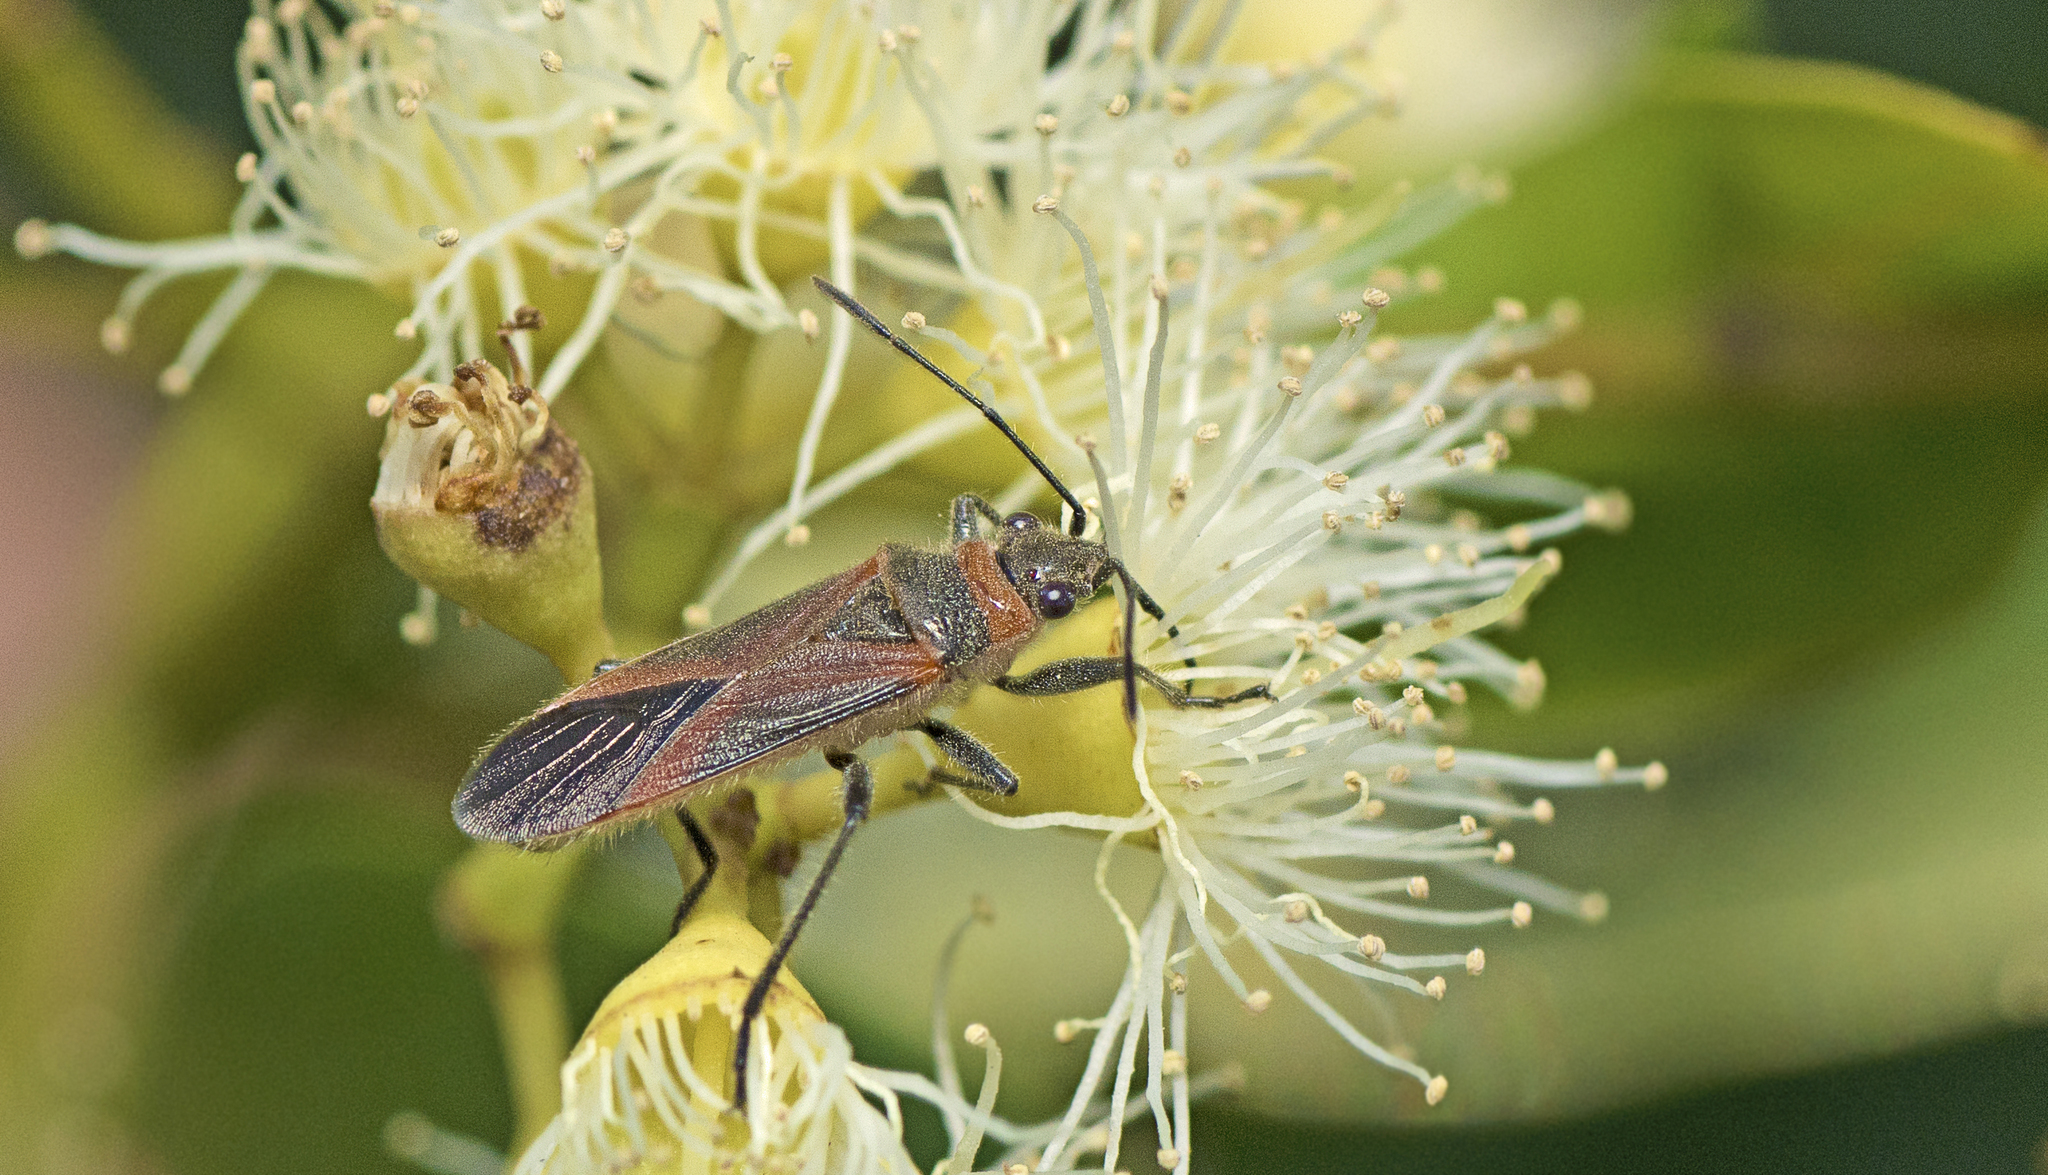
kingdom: Animalia
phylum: Arthropoda
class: Insecta
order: Hemiptera
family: Lygaeidae
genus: Arocatus
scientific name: Arocatus rusticus
